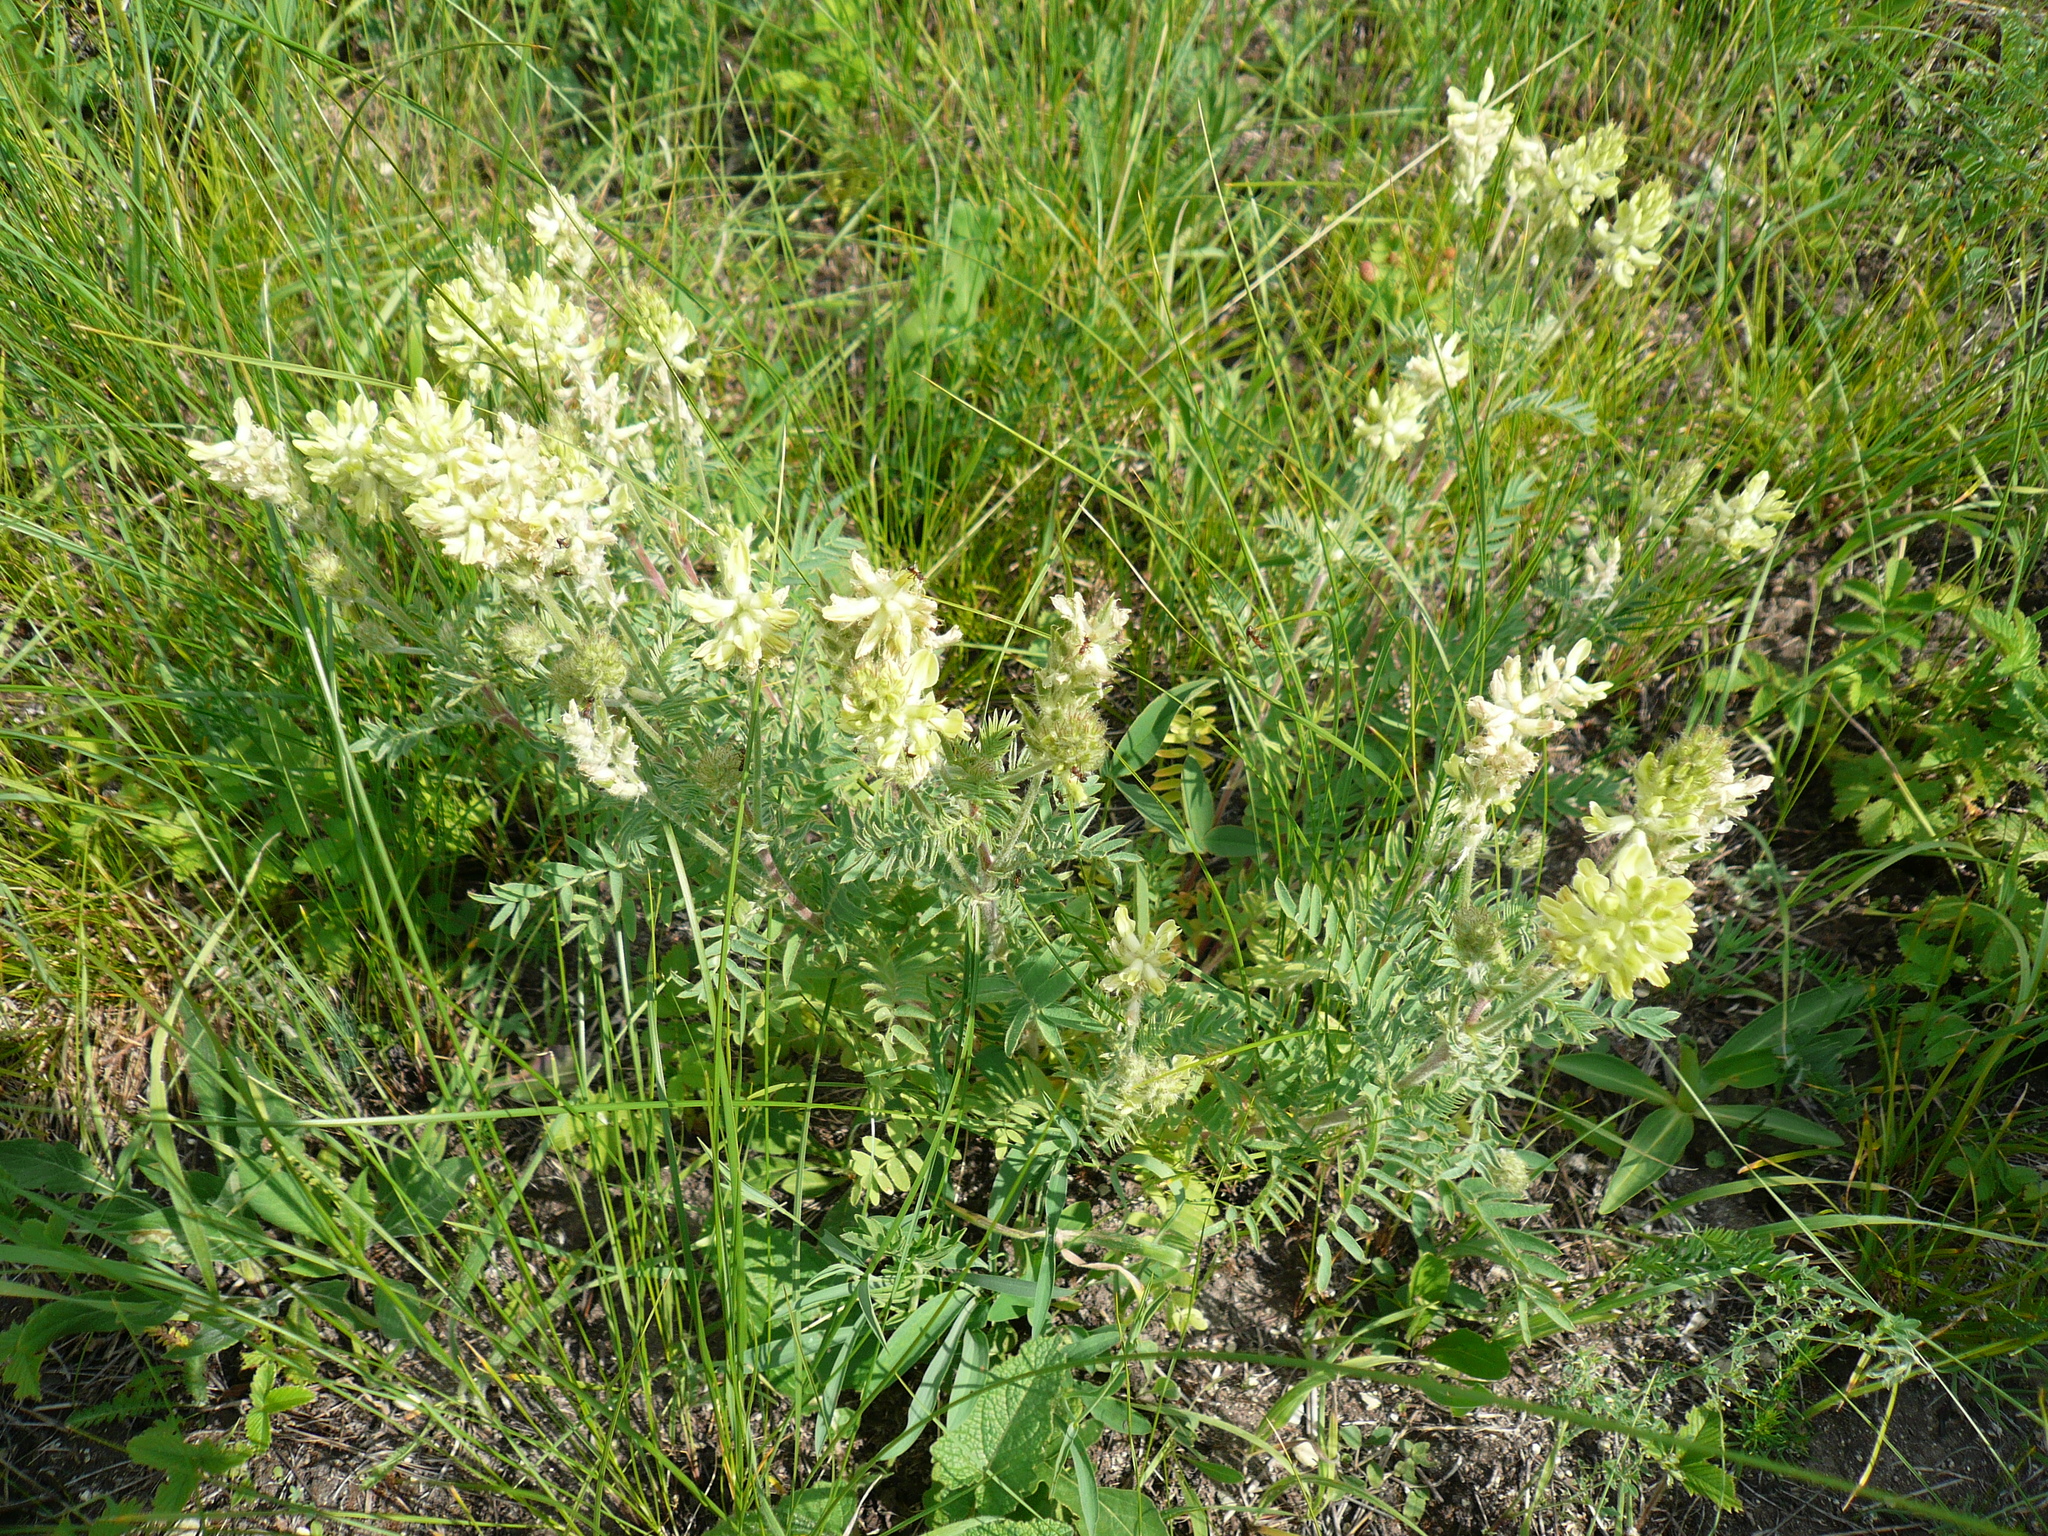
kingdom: Plantae
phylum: Tracheophyta
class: Magnoliopsida
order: Fabales
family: Fabaceae
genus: Oxytropis
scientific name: Oxytropis pilosa
